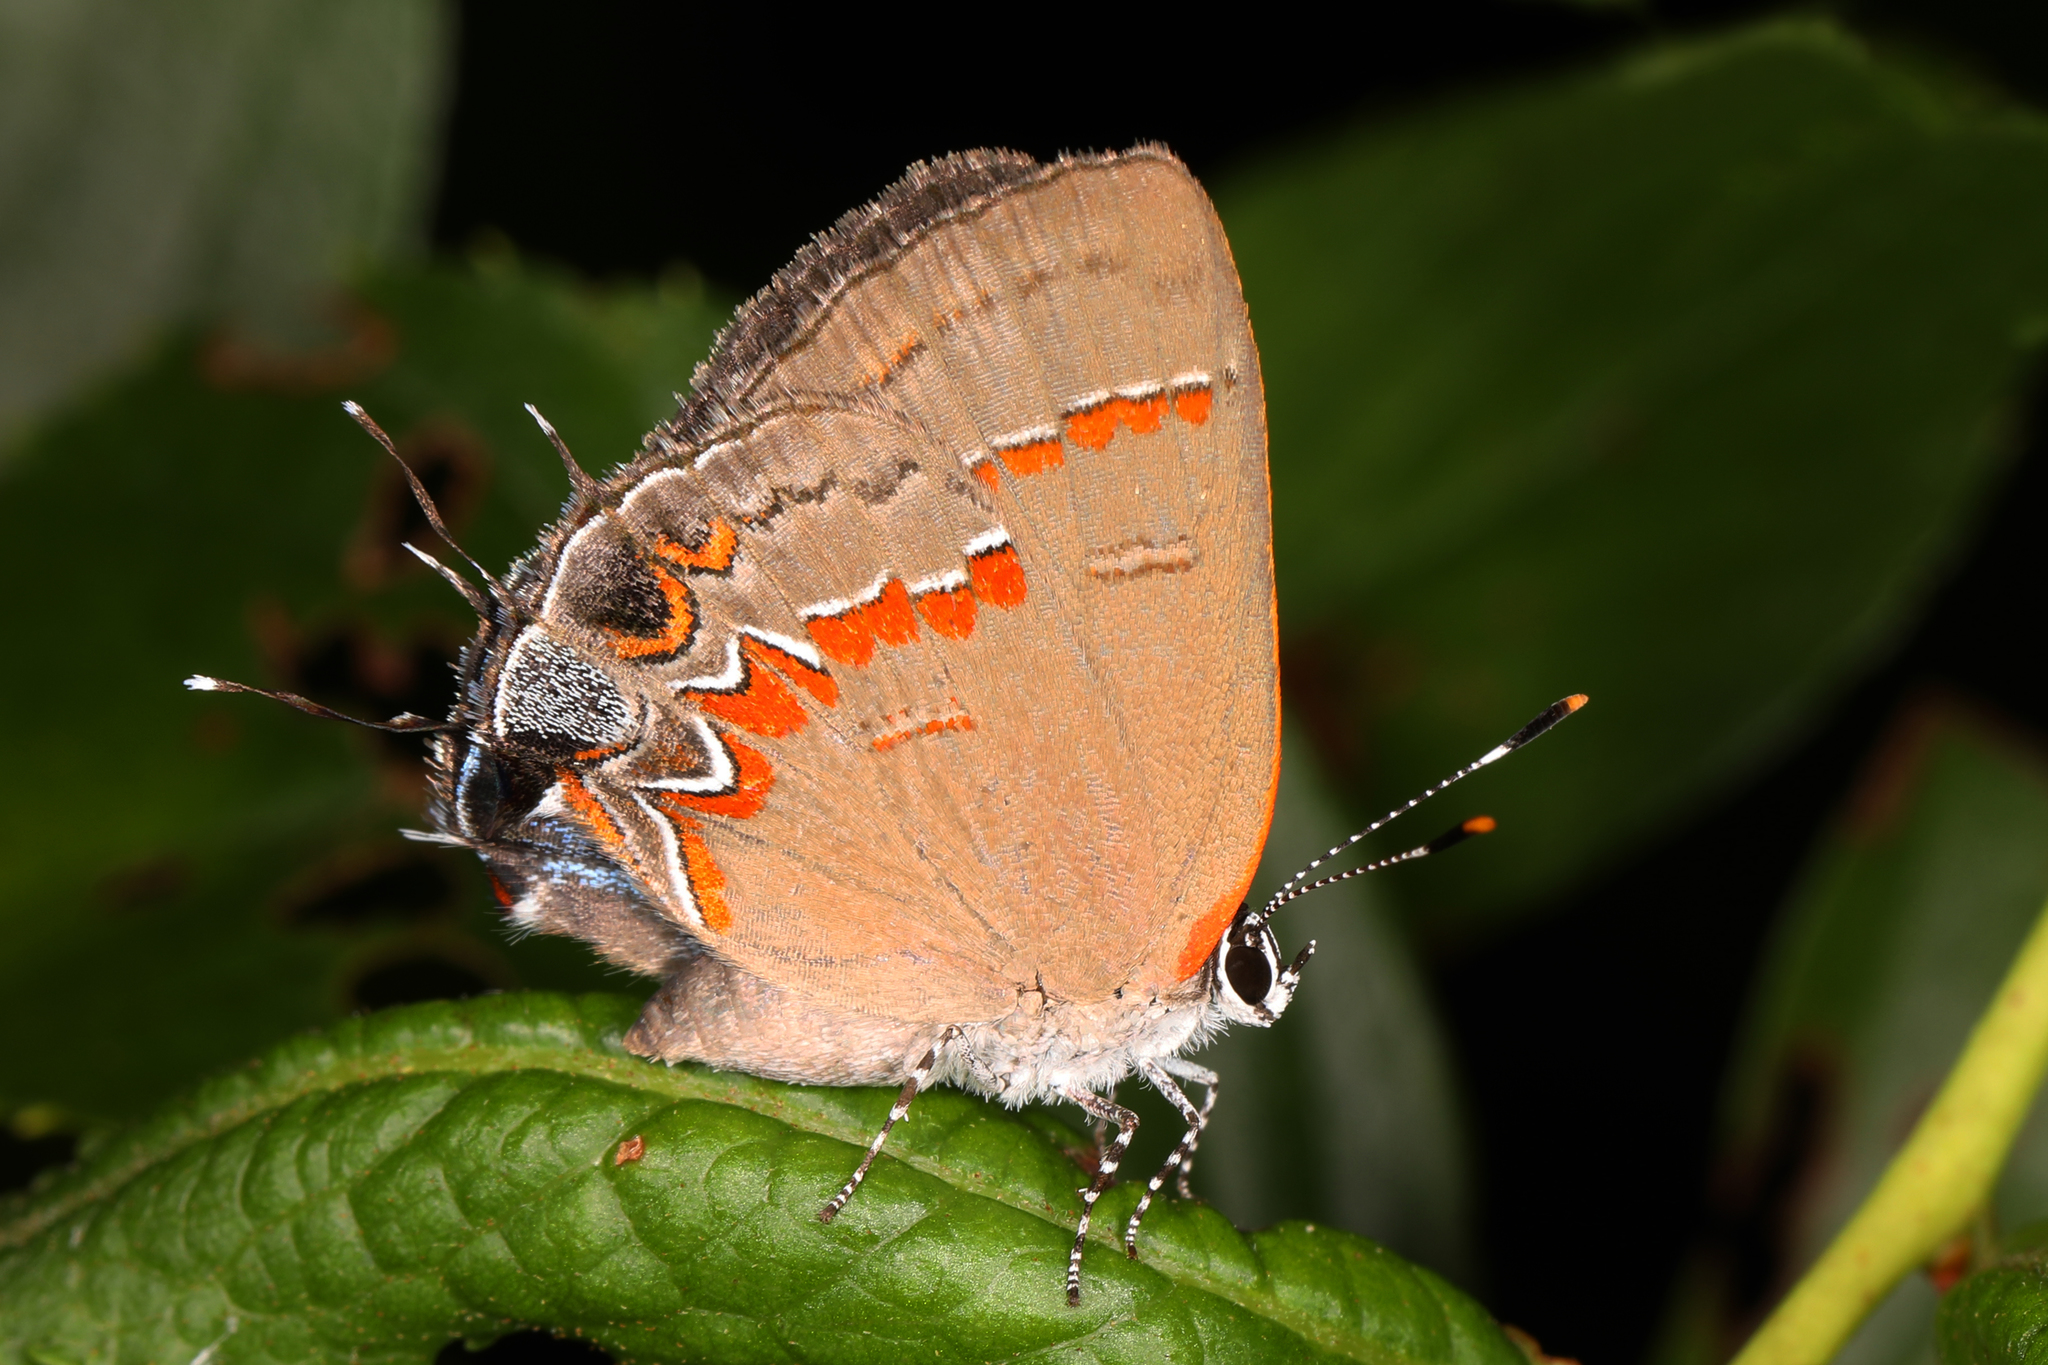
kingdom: Animalia
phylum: Arthropoda
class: Insecta
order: Lepidoptera
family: Lycaenidae
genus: Calycopis
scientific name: Calycopis cecrops
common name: Red-banded hairstreak
